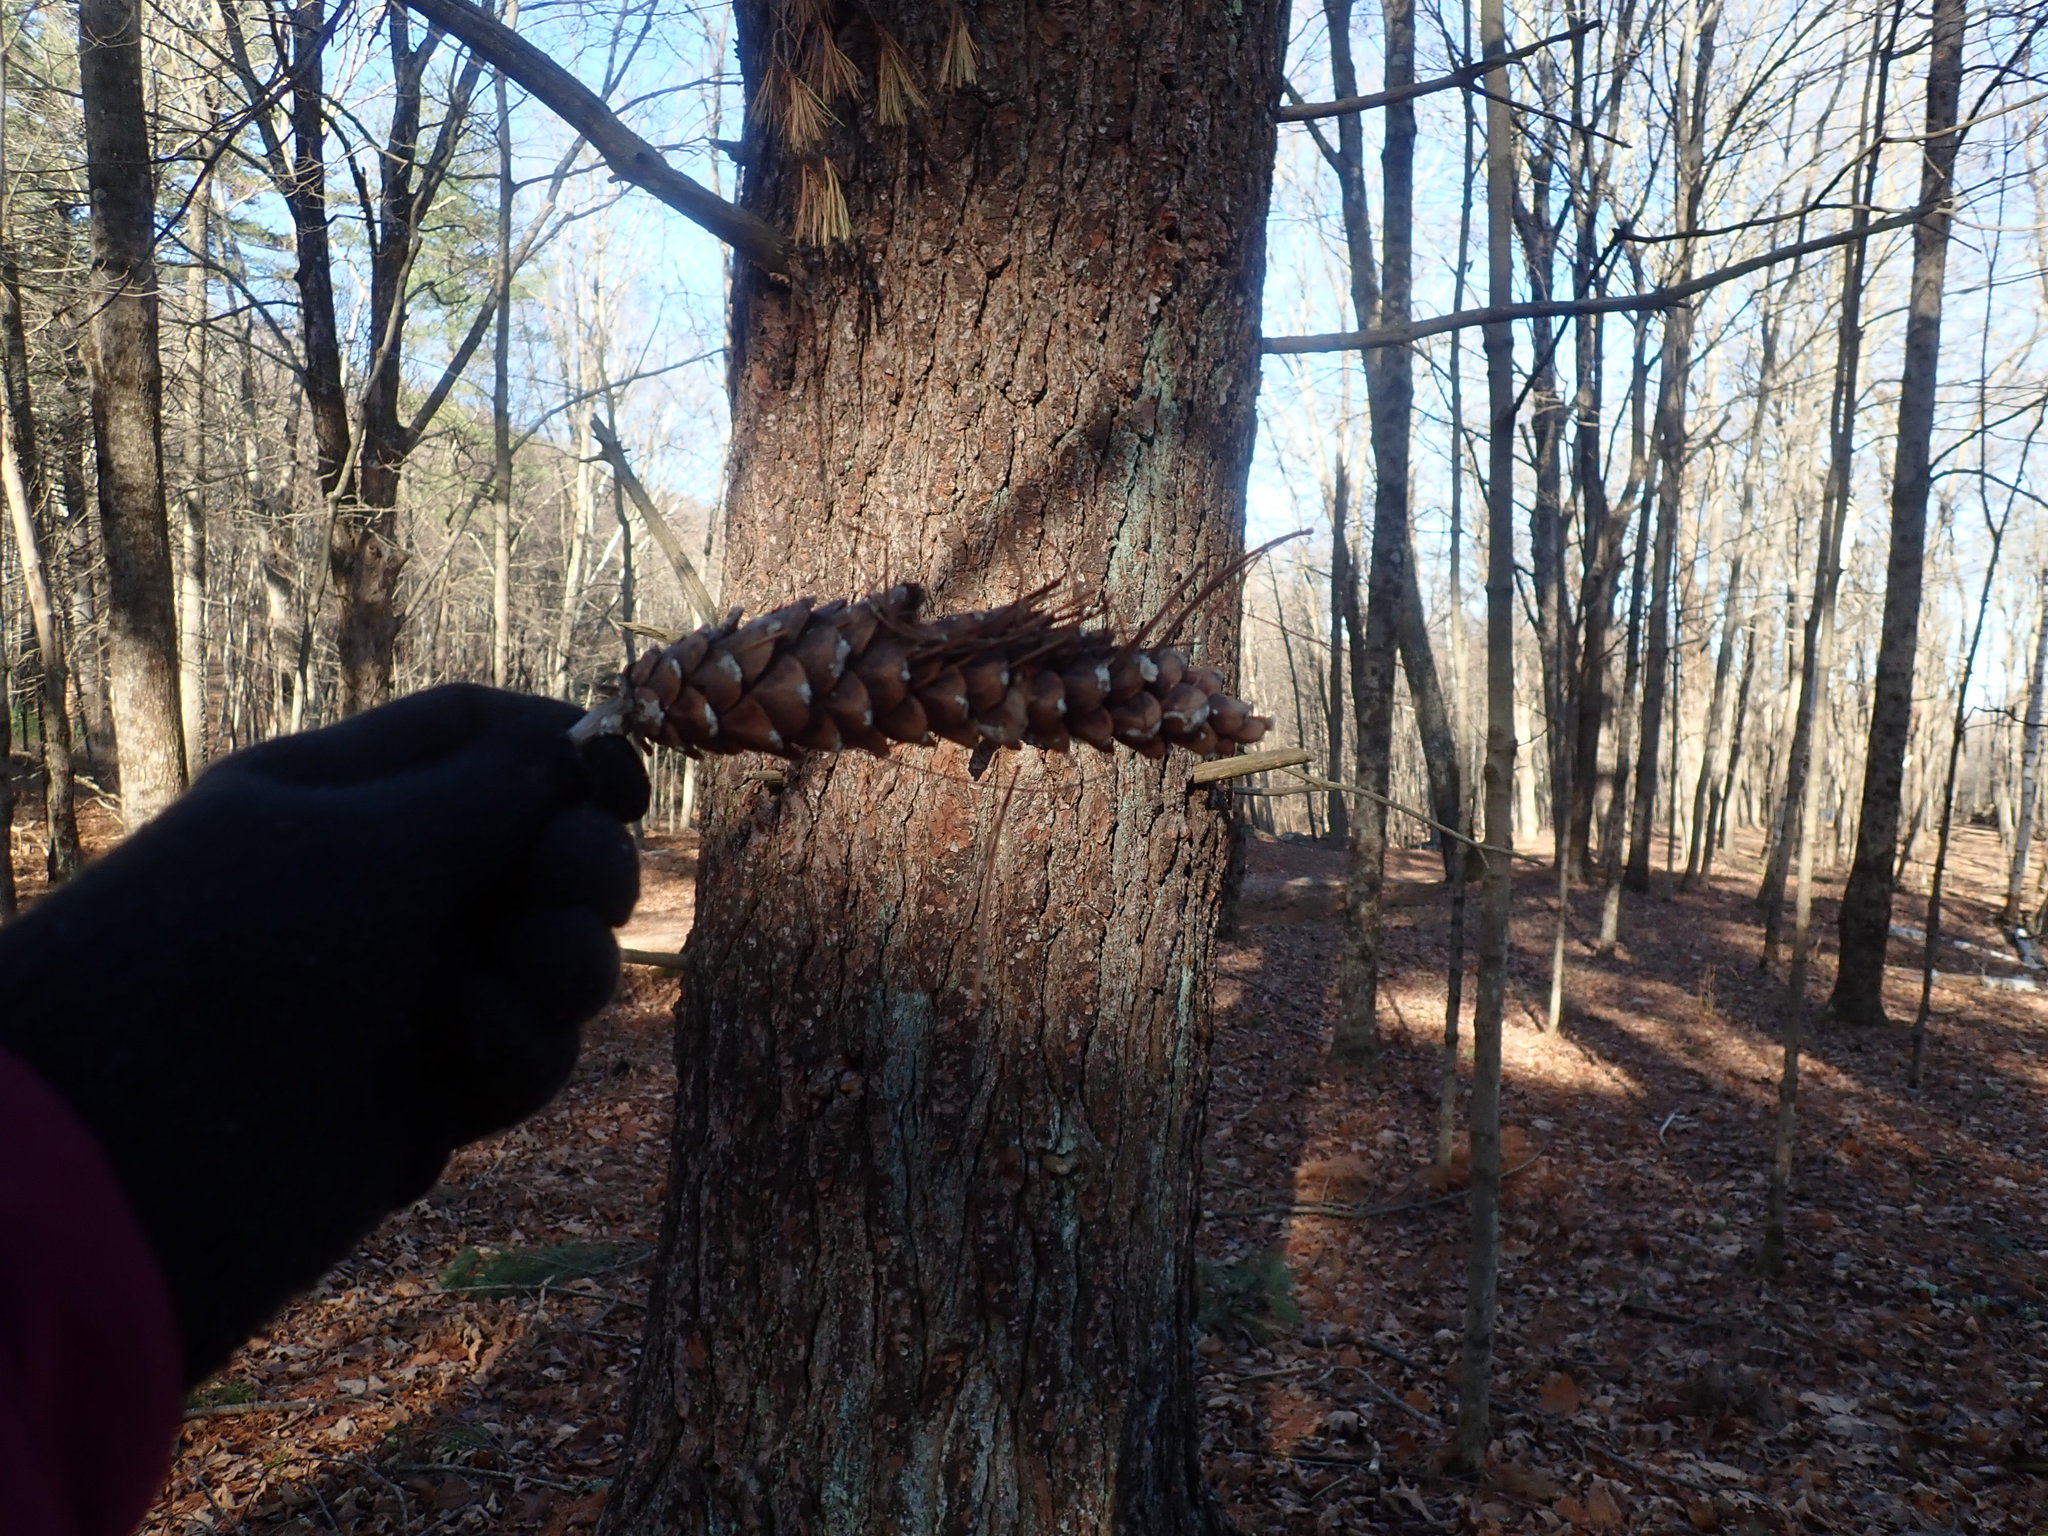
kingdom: Plantae
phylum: Tracheophyta
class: Pinopsida
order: Pinales
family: Pinaceae
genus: Pinus
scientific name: Pinus strobus
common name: Weymouth pine
